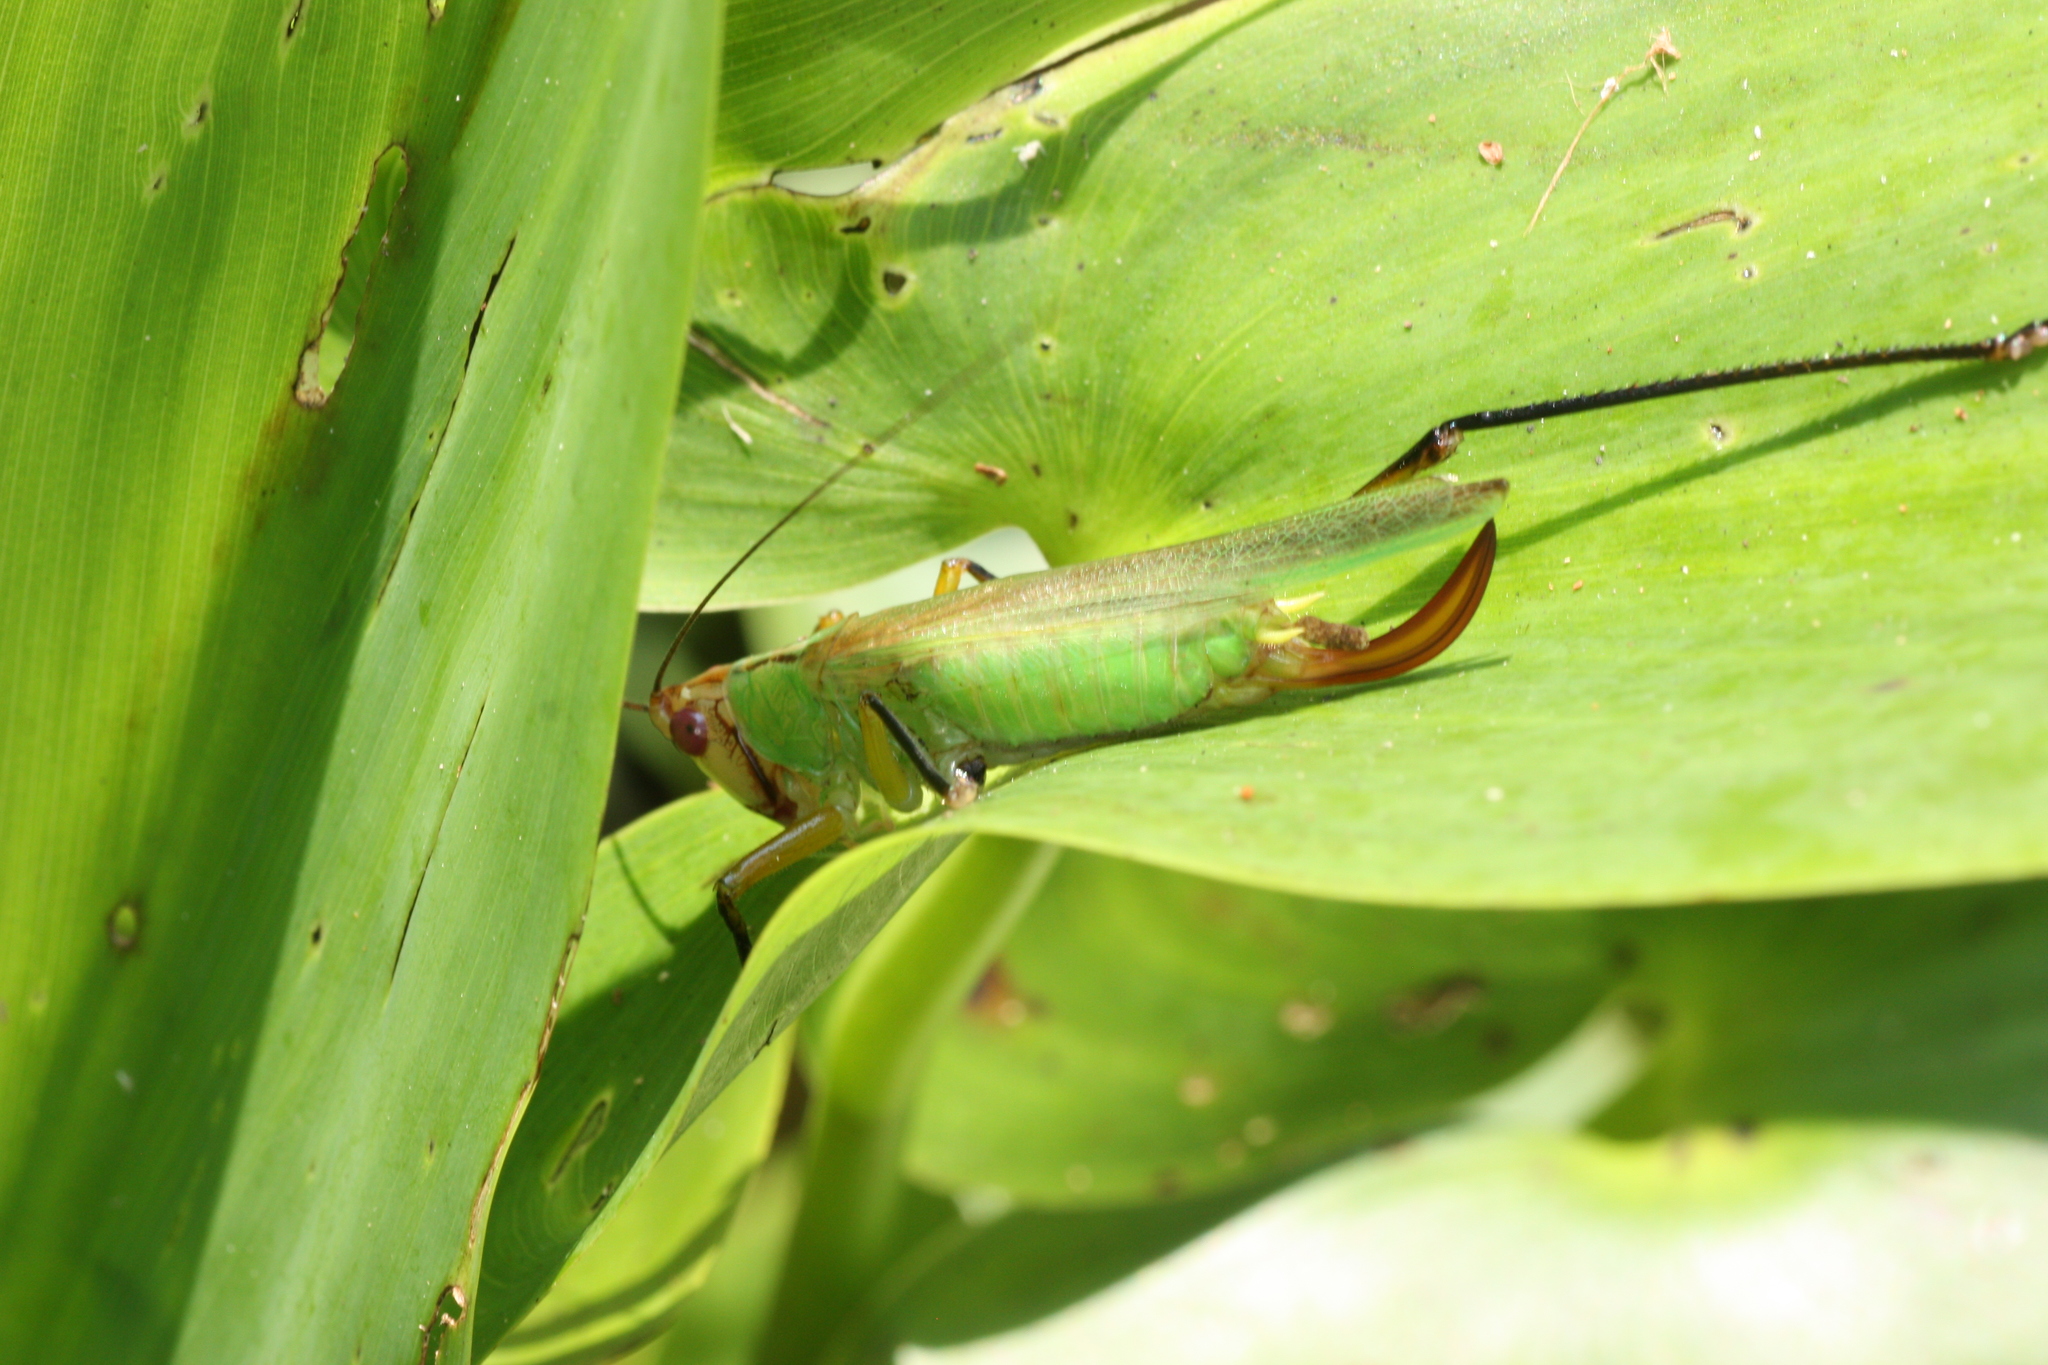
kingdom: Animalia
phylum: Arthropoda
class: Insecta
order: Orthoptera
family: Tettigoniidae
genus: Orchelimum
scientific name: Orchelimum nigripes
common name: Black-legged meadow katydid
